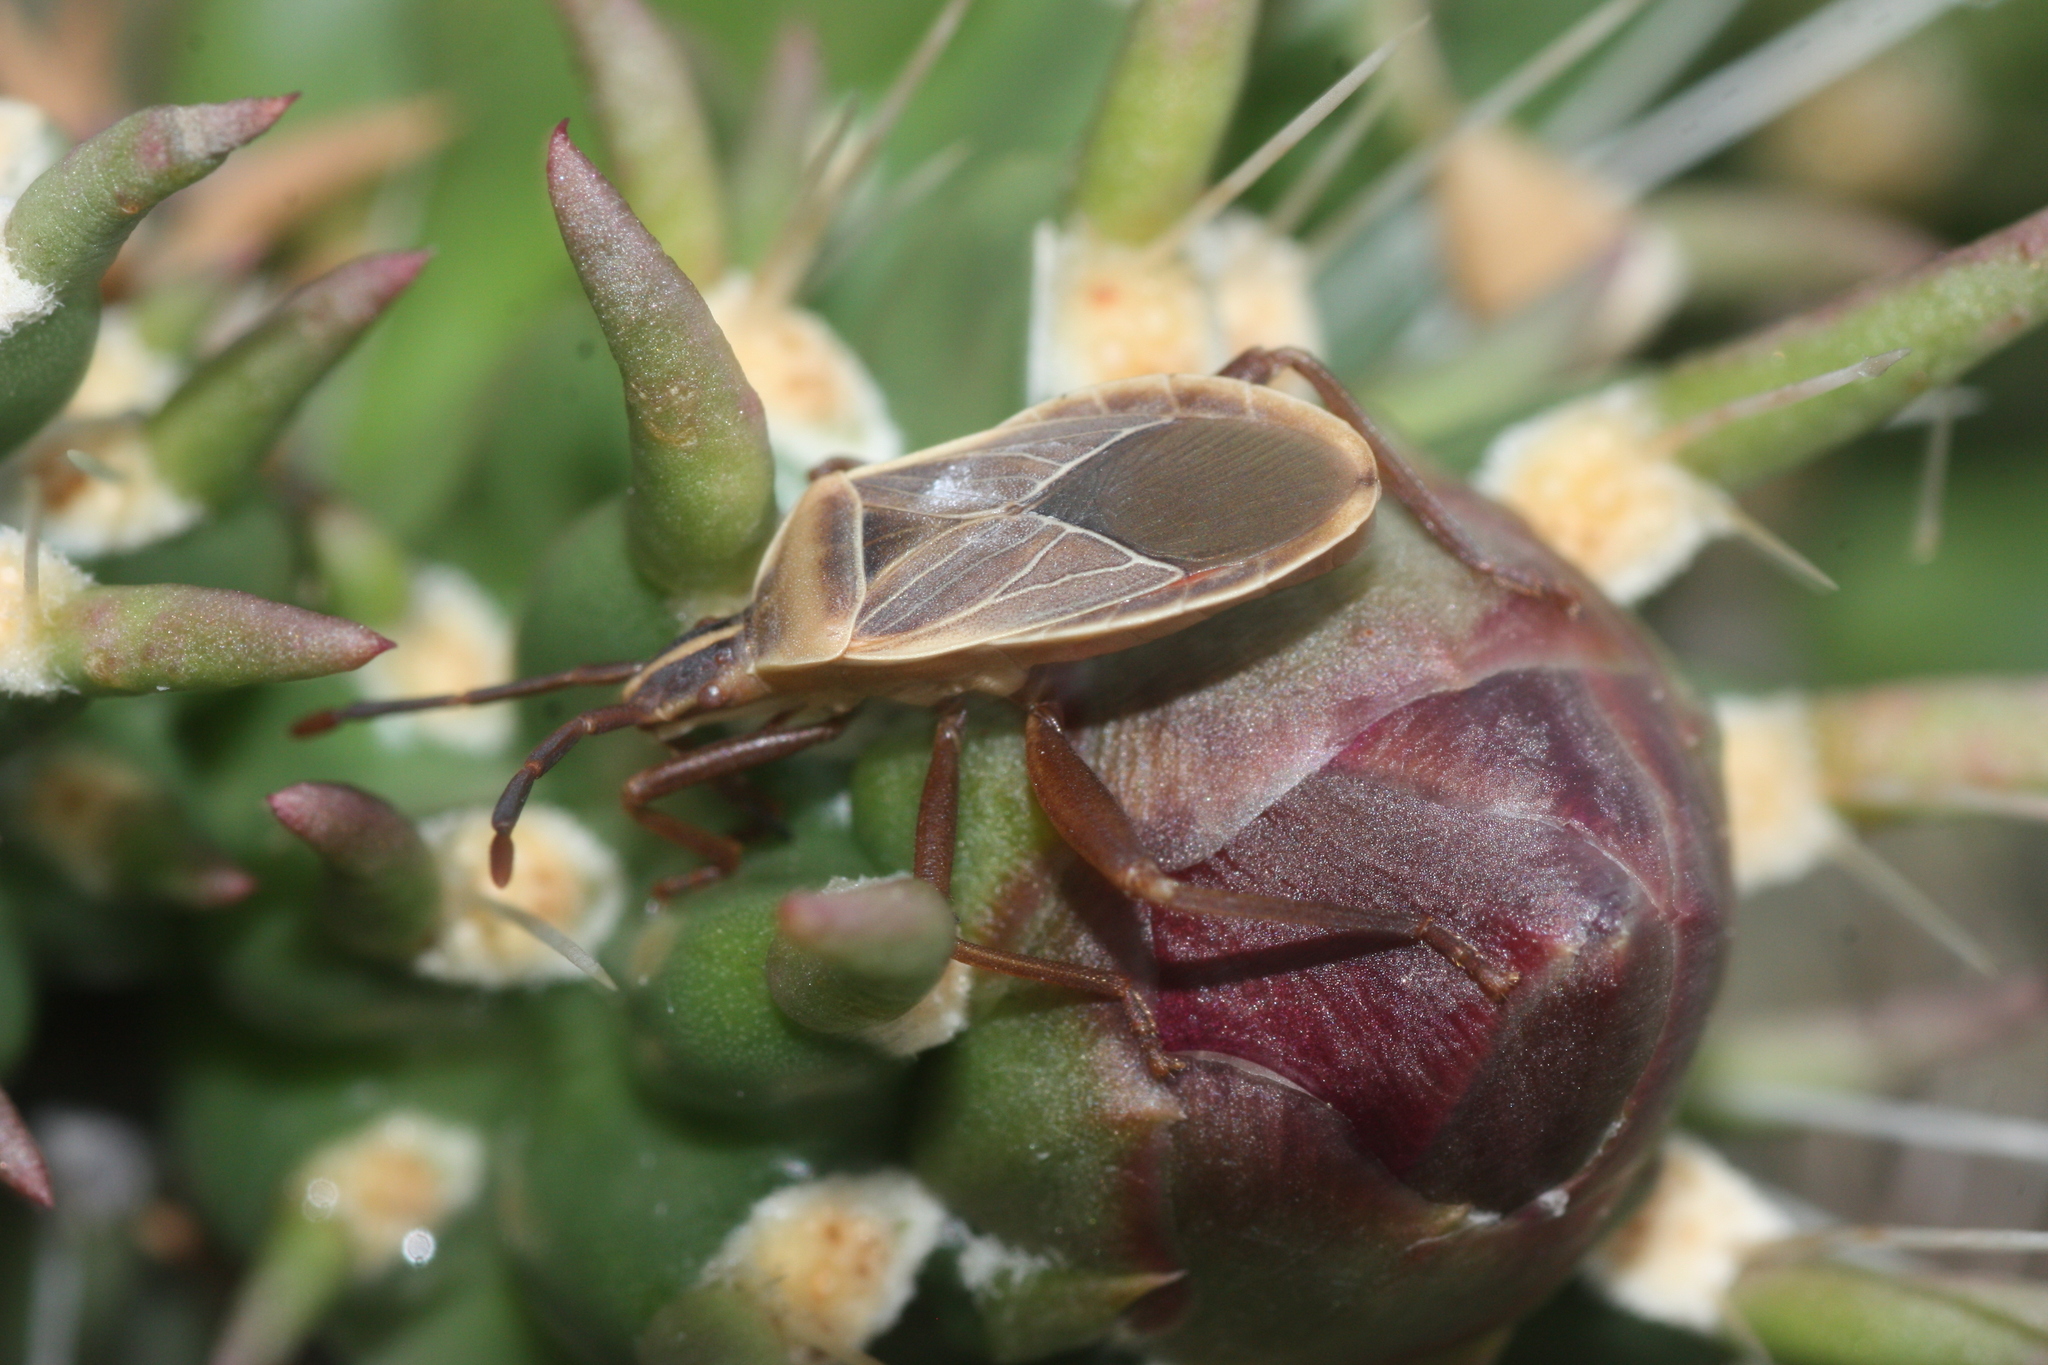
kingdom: Animalia
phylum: Arthropoda
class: Insecta
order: Hemiptera
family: Coreidae
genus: Chelinidea
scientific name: Chelinidea vittiger
